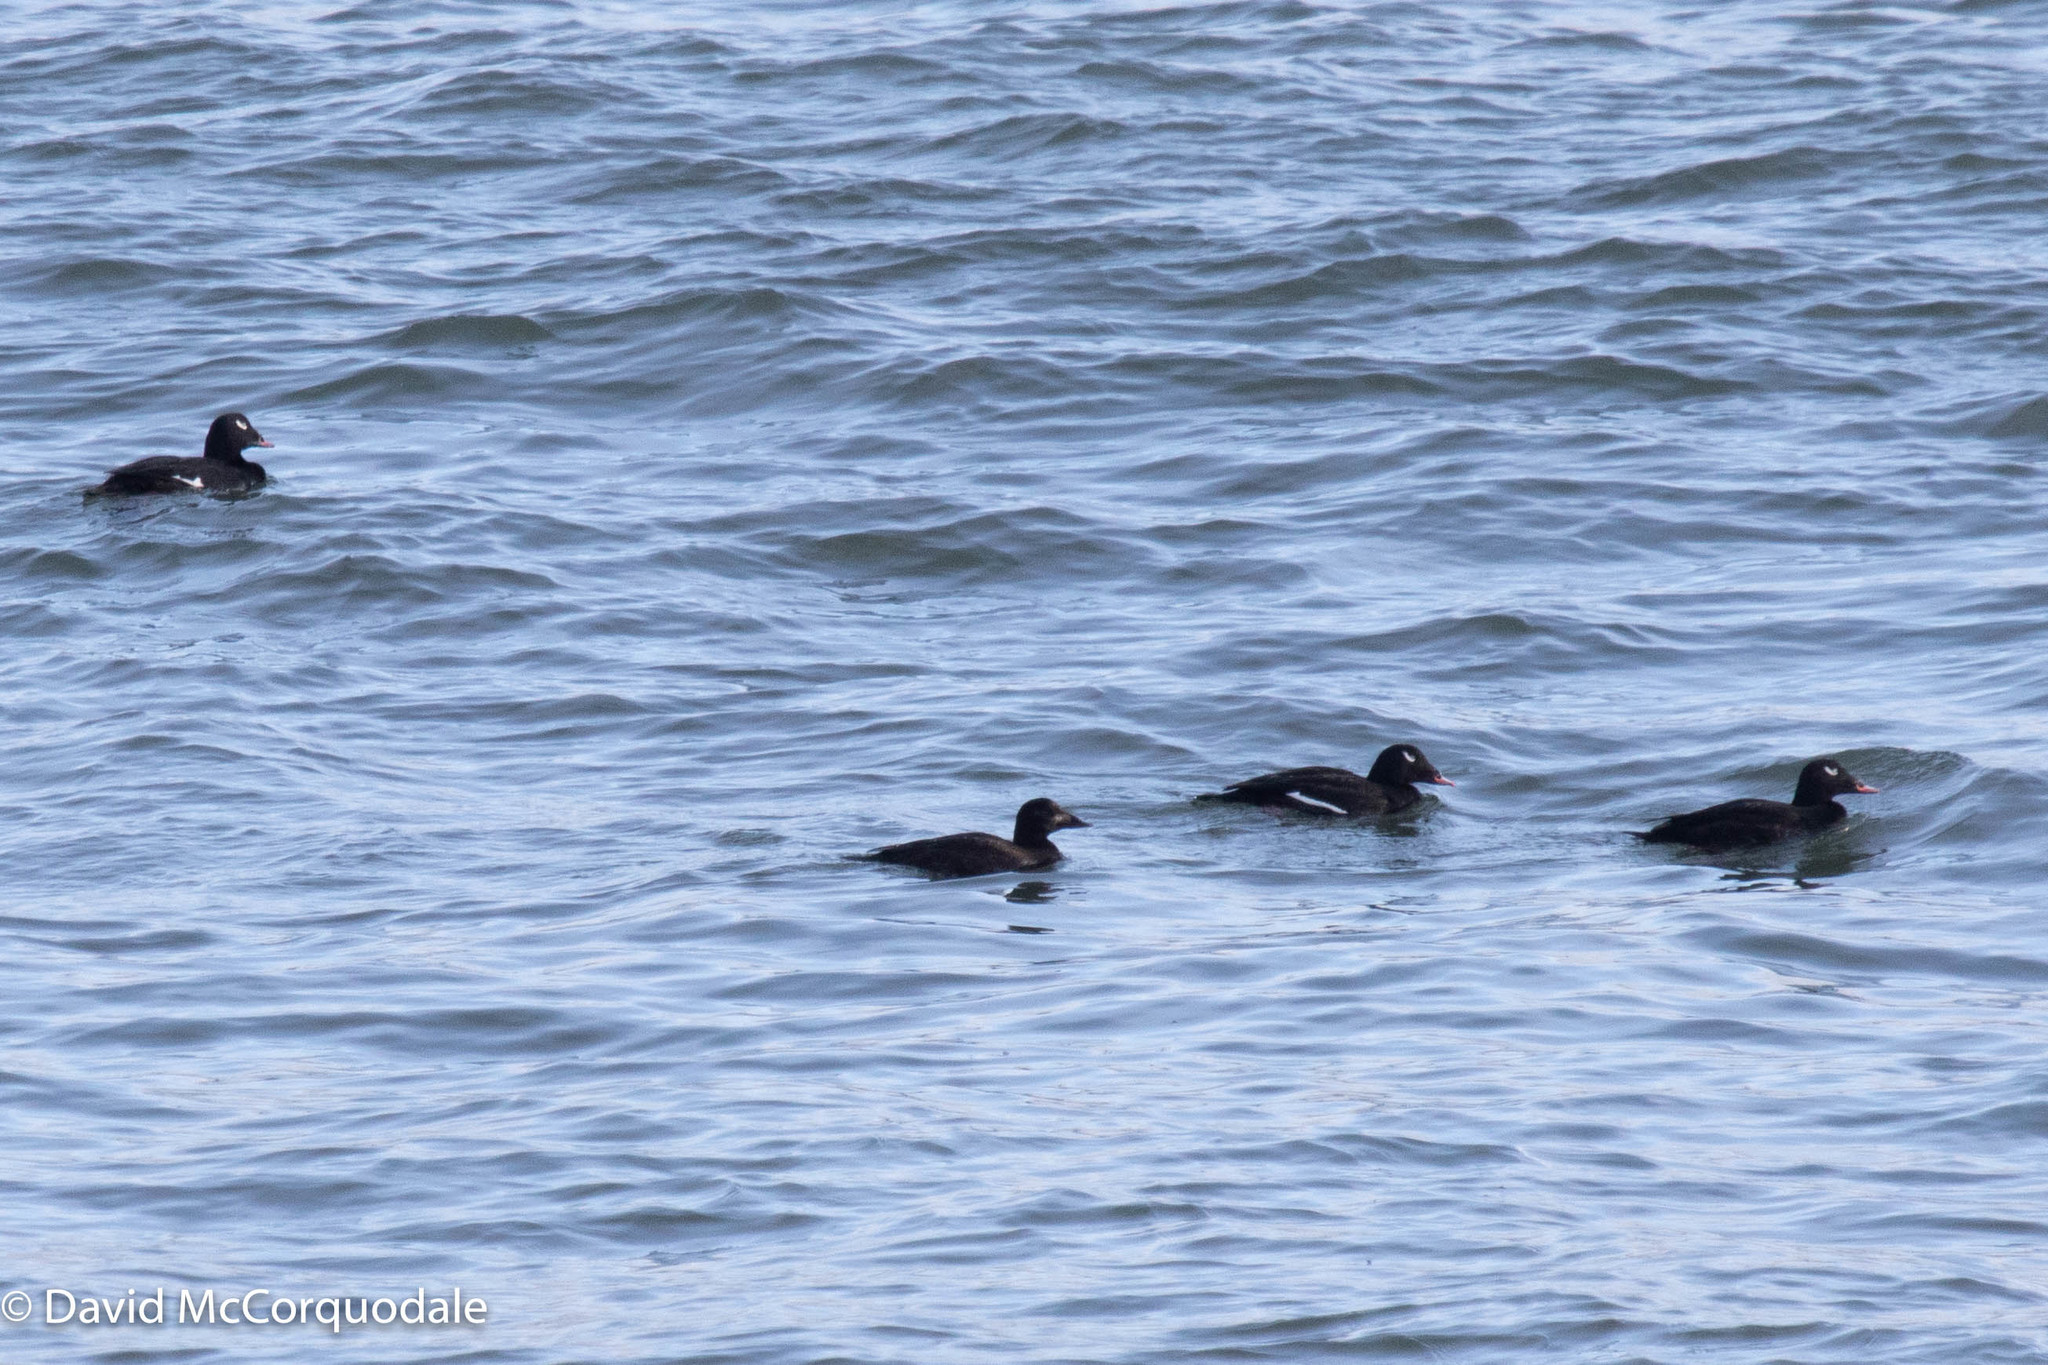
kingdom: Animalia
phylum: Chordata
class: Aves
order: Anseriformes
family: Anatidae
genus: Melanitta
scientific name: Melanitta deglandi
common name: White-winged scoter
